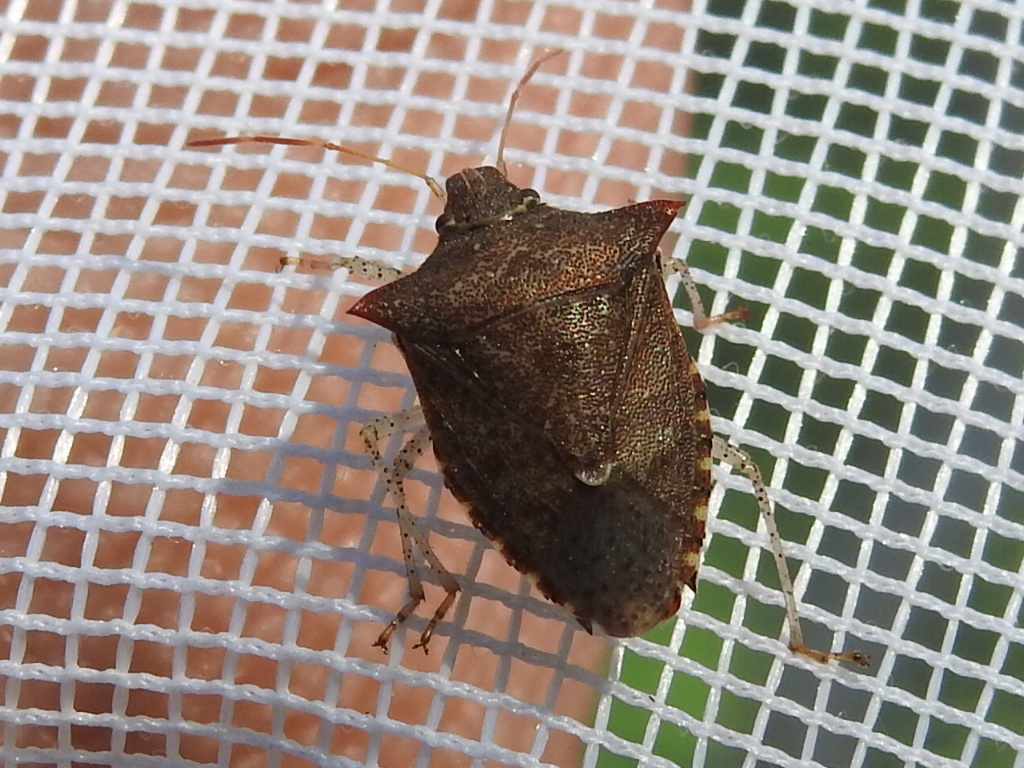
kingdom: Animalia
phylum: Arthropoda
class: Insecta
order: Hemiptera
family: Pentatomidae
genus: Euschistus
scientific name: Euschistus tristigmus
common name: Dusky stink bug
